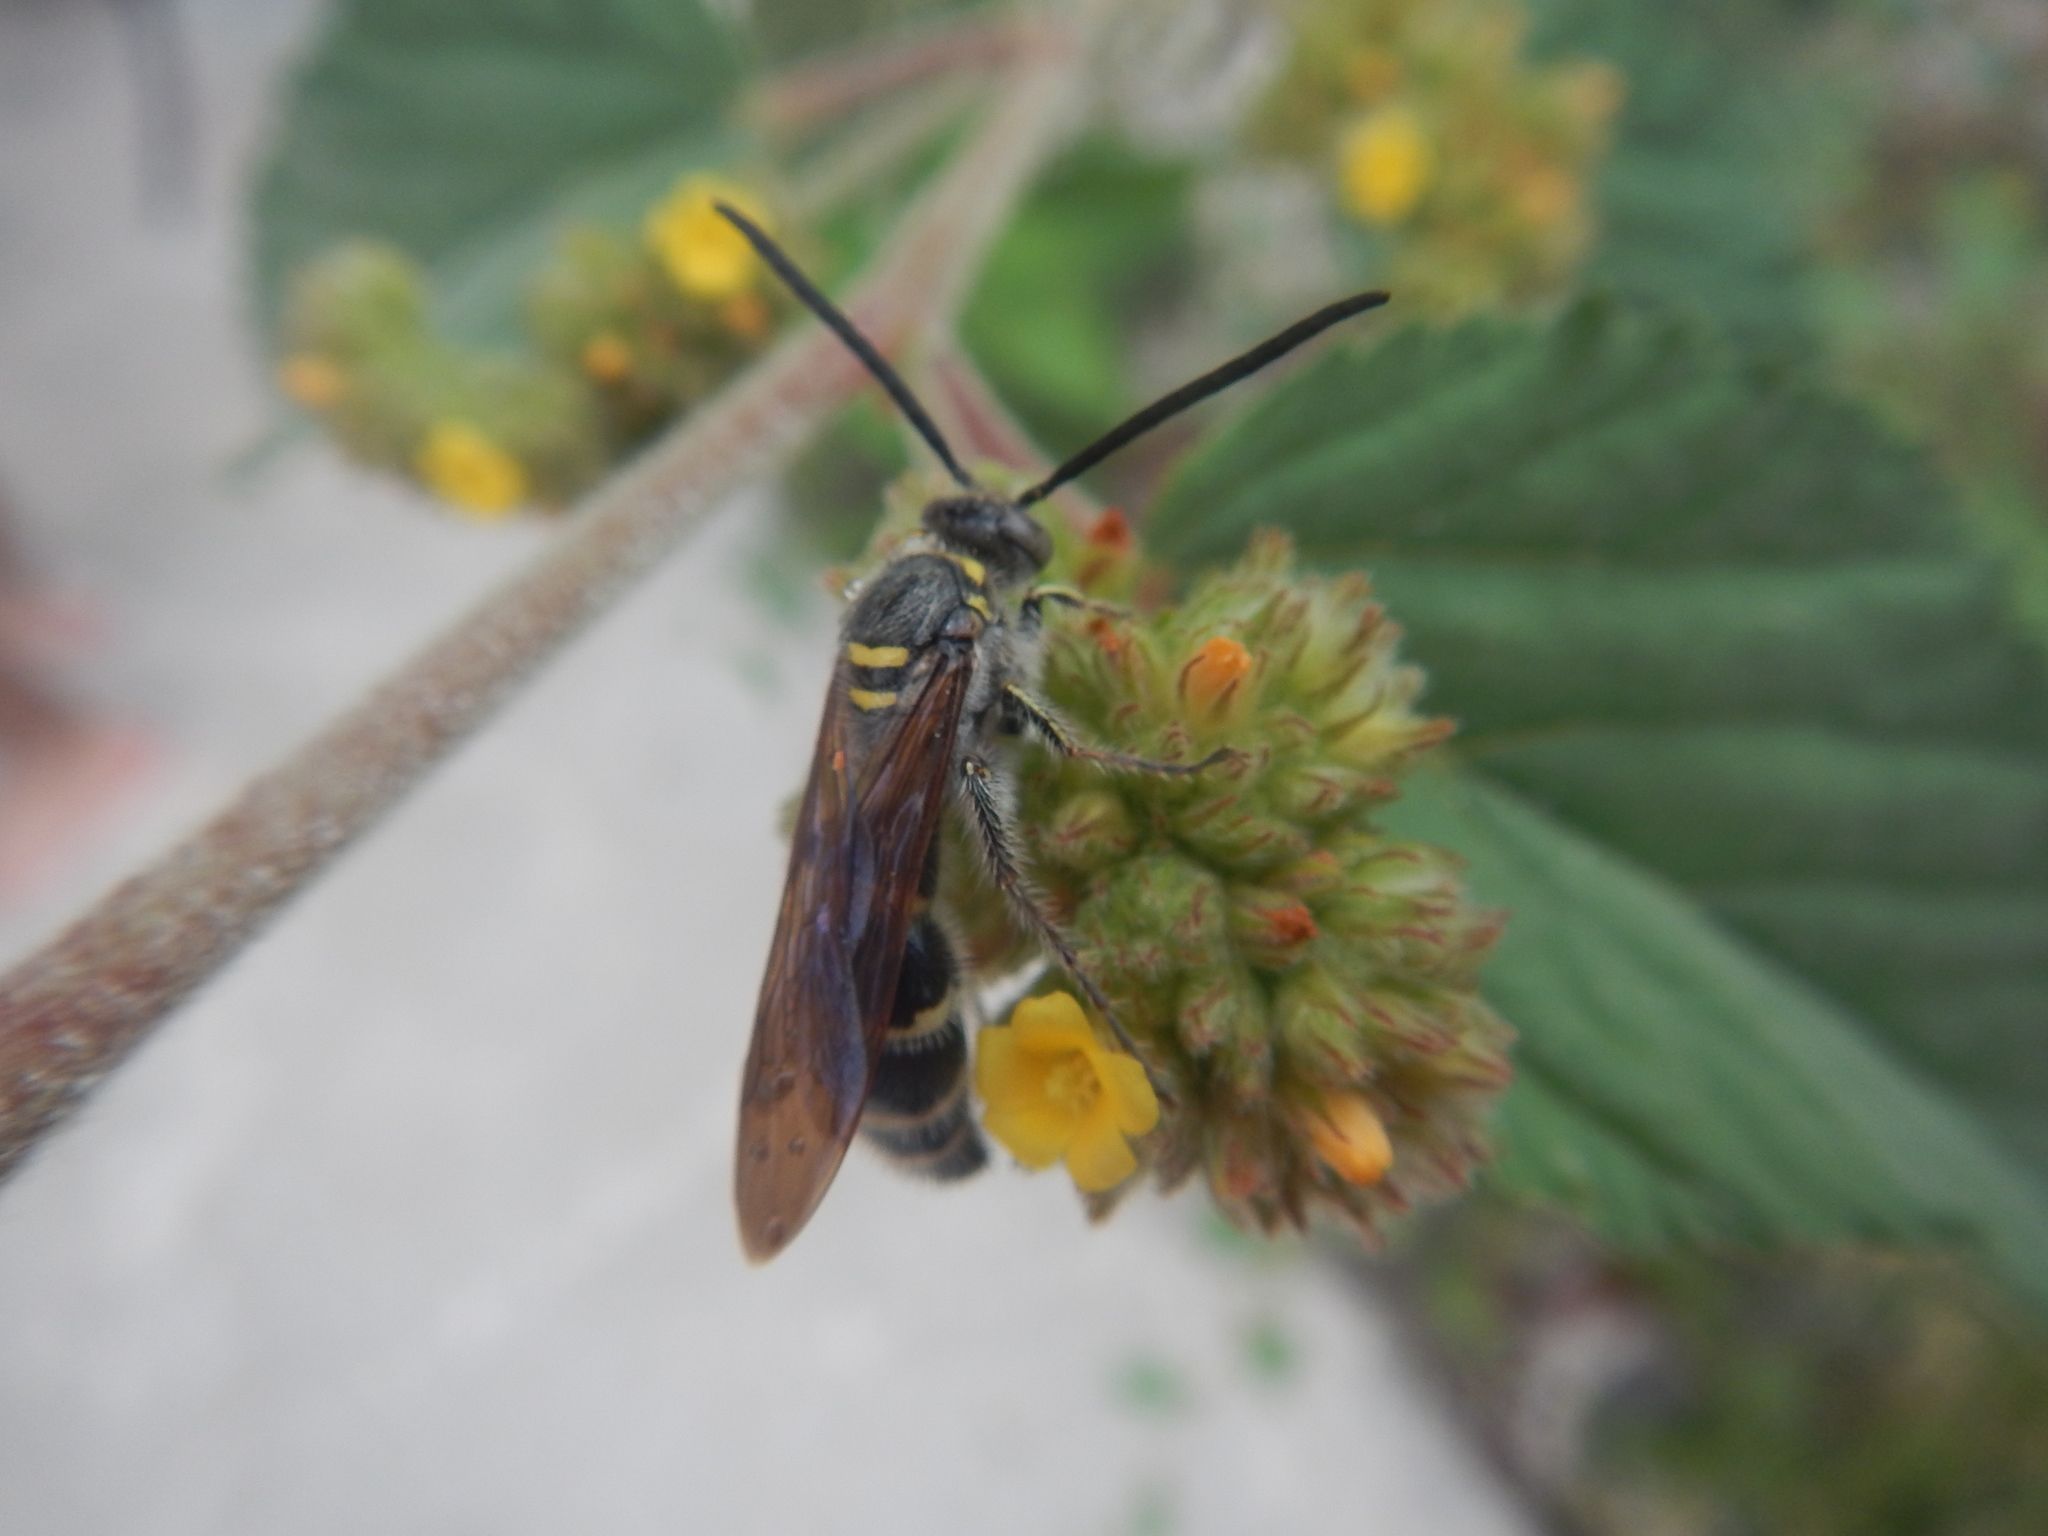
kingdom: Animalia
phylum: Arthropoda
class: Insecta
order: Hymenoptera
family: Scoliidae
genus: Dielis
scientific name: Dielis
